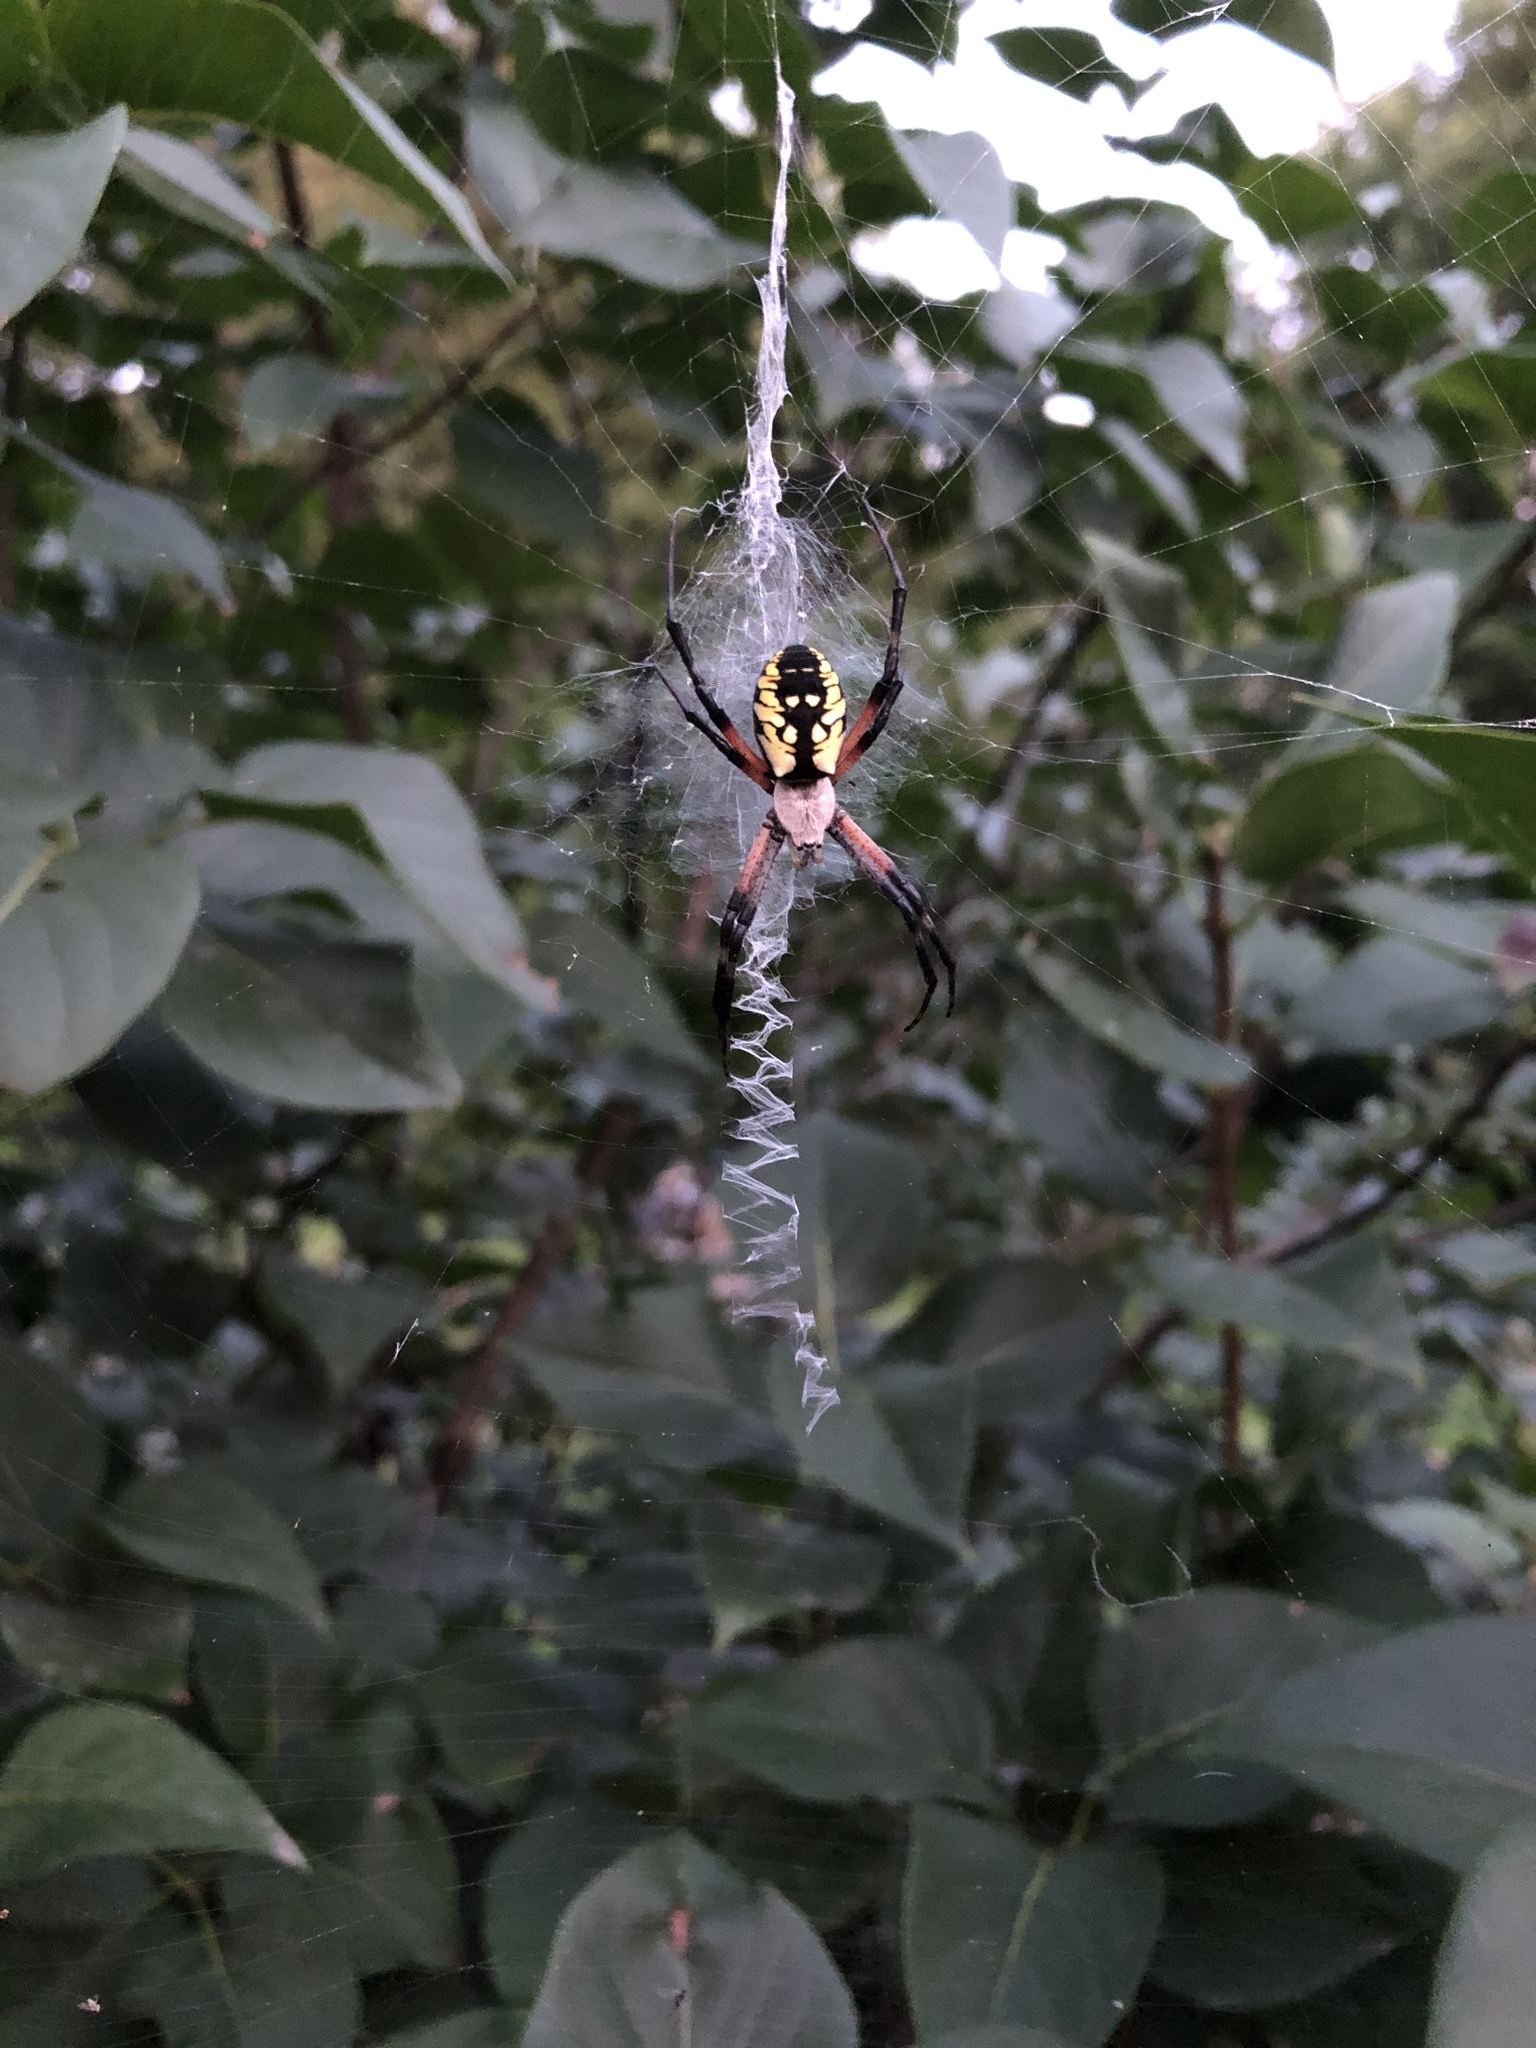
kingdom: Animalia
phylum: Arthropoda
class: Arachnida
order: Araneae
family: Araneidae
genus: Argiope
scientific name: Argiope aurantia
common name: Orb weavers
